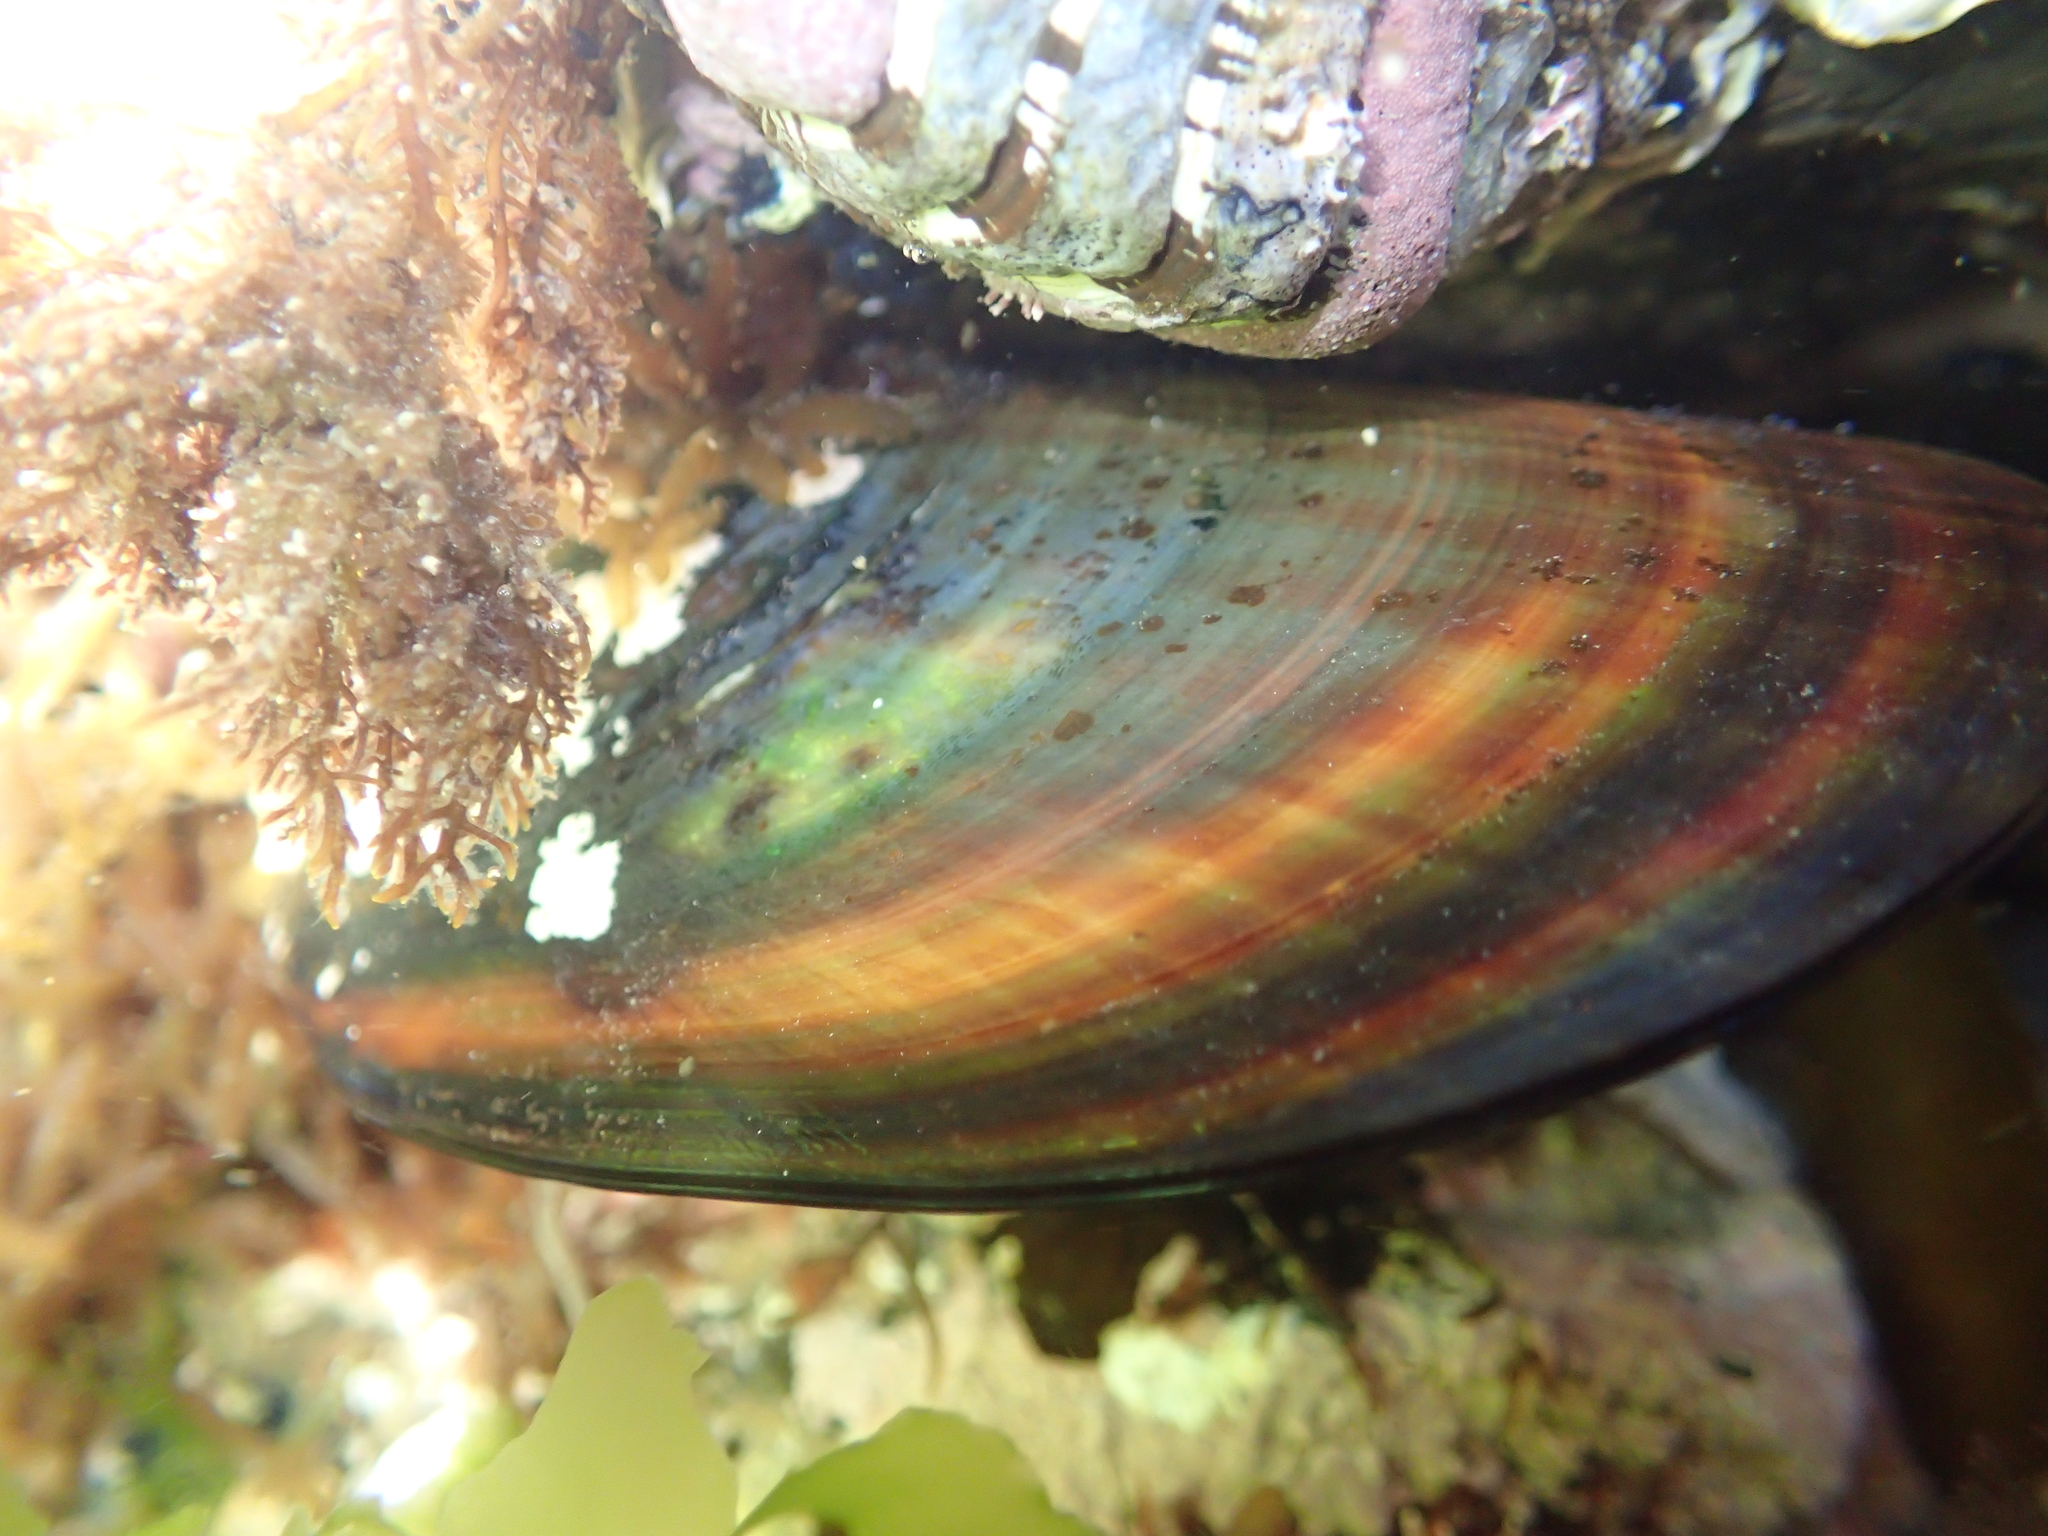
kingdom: Animalia
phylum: Mollusca
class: Bivalvia
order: Mytilida
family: Mytilidae
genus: Perna
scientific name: Perna canaliculus
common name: New zealand greenshelltm
